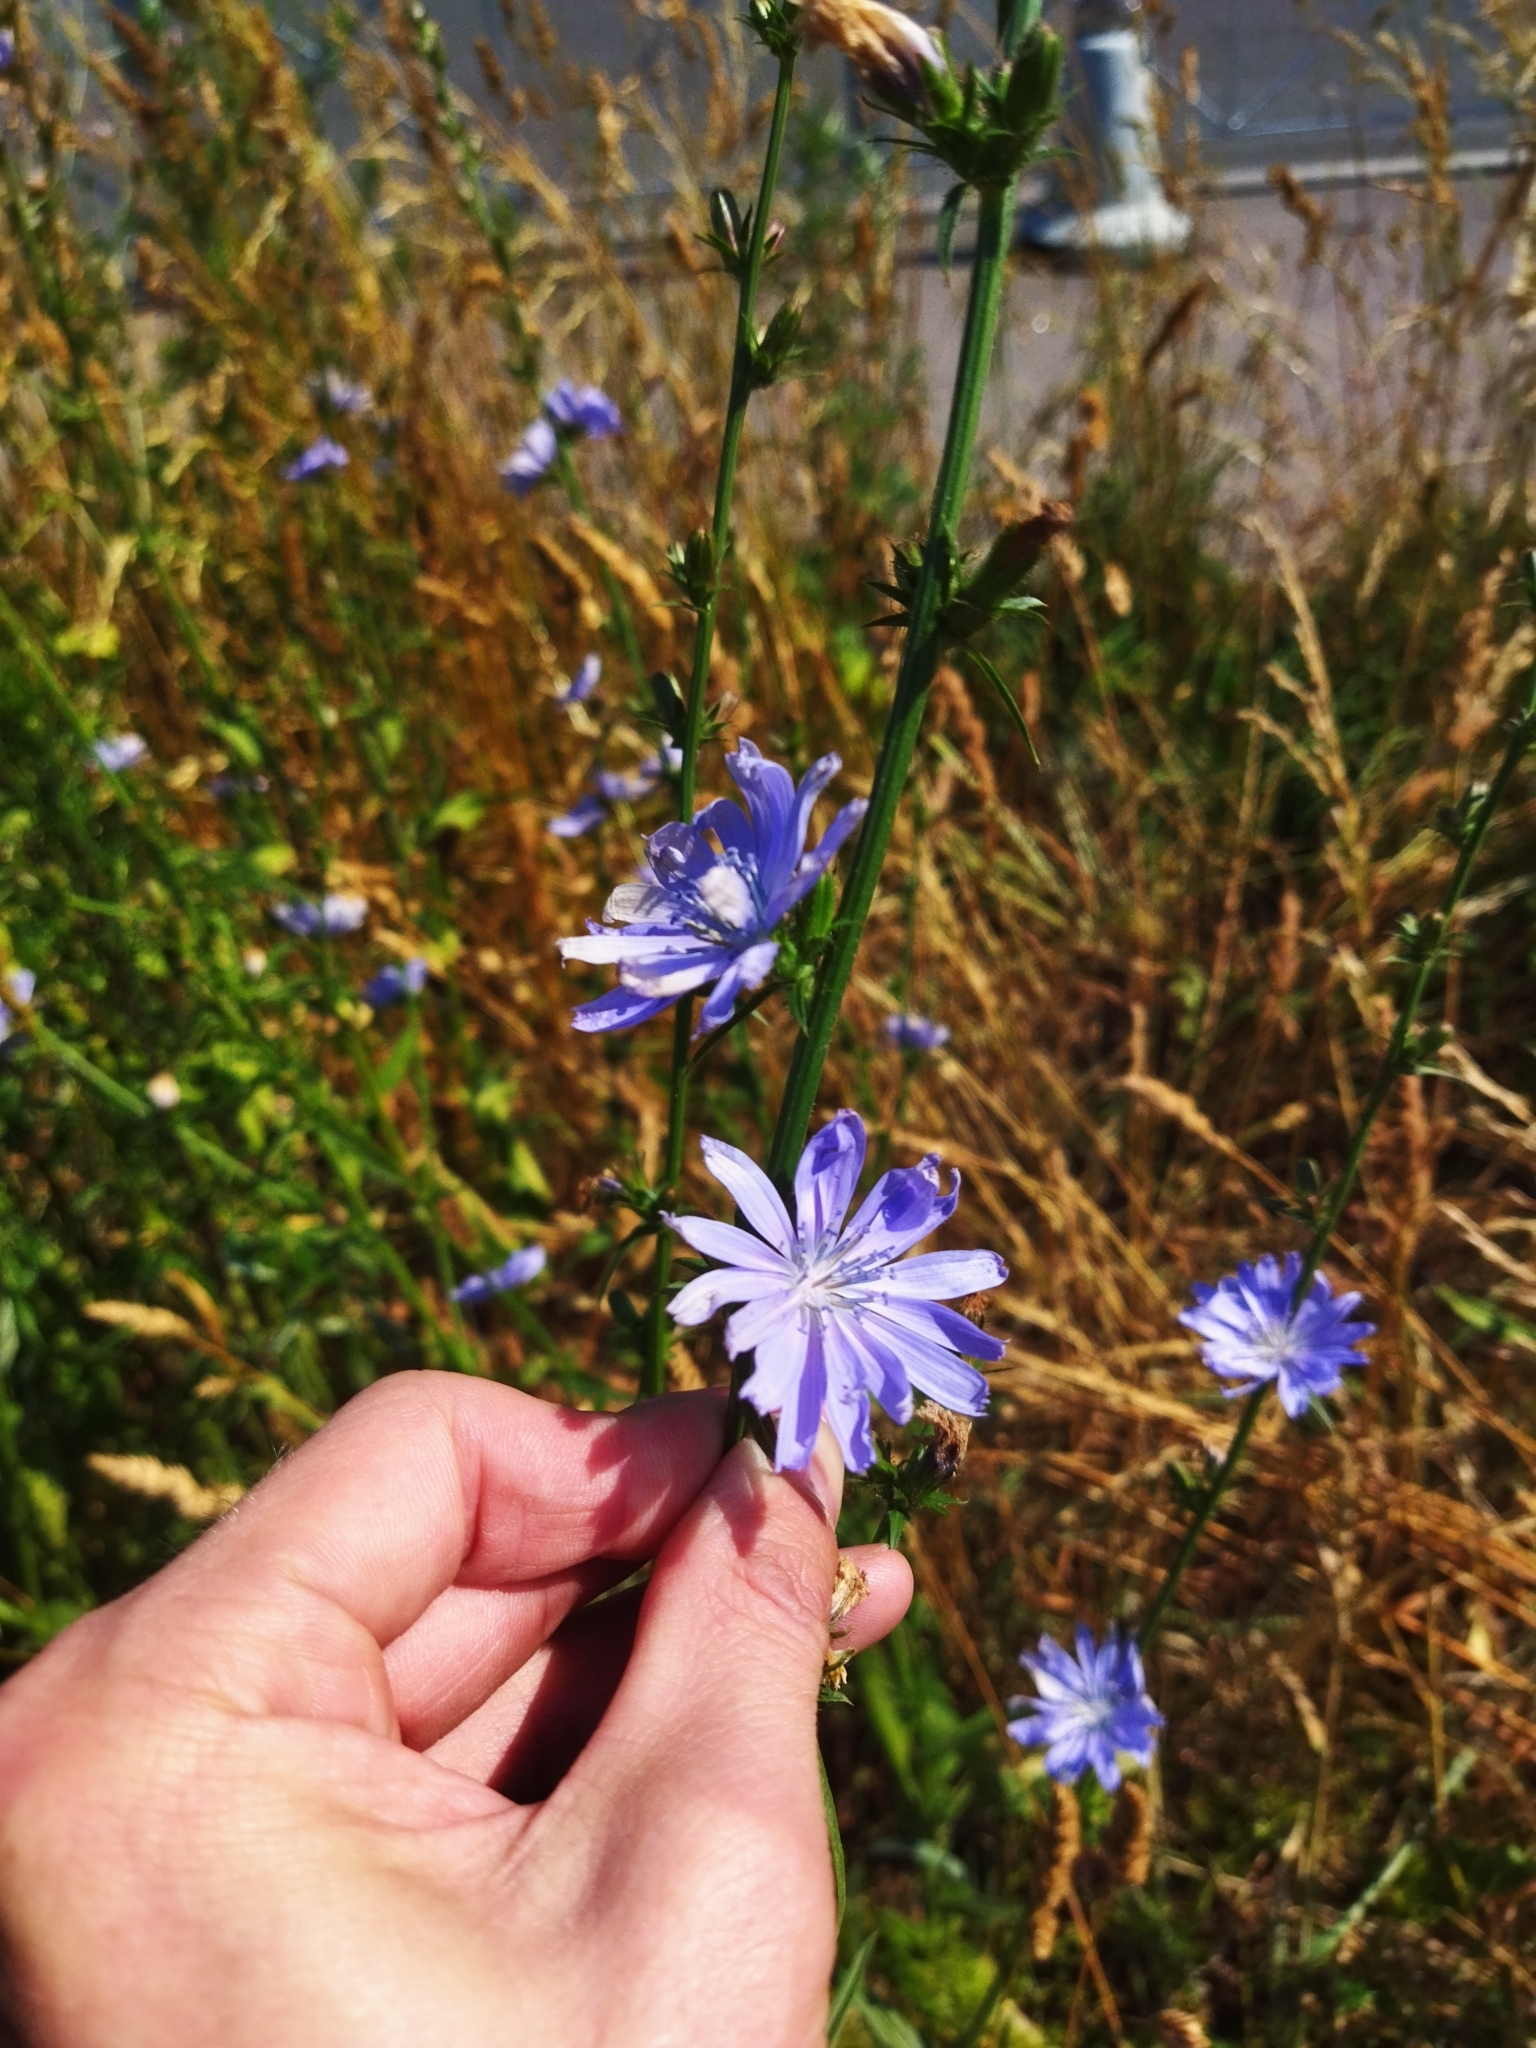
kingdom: Plantae
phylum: Tracheophyta
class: Magnoliopsida
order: Asterales
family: Asteraceae
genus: Cichorium
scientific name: Cichorium intybus
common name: Chicory
